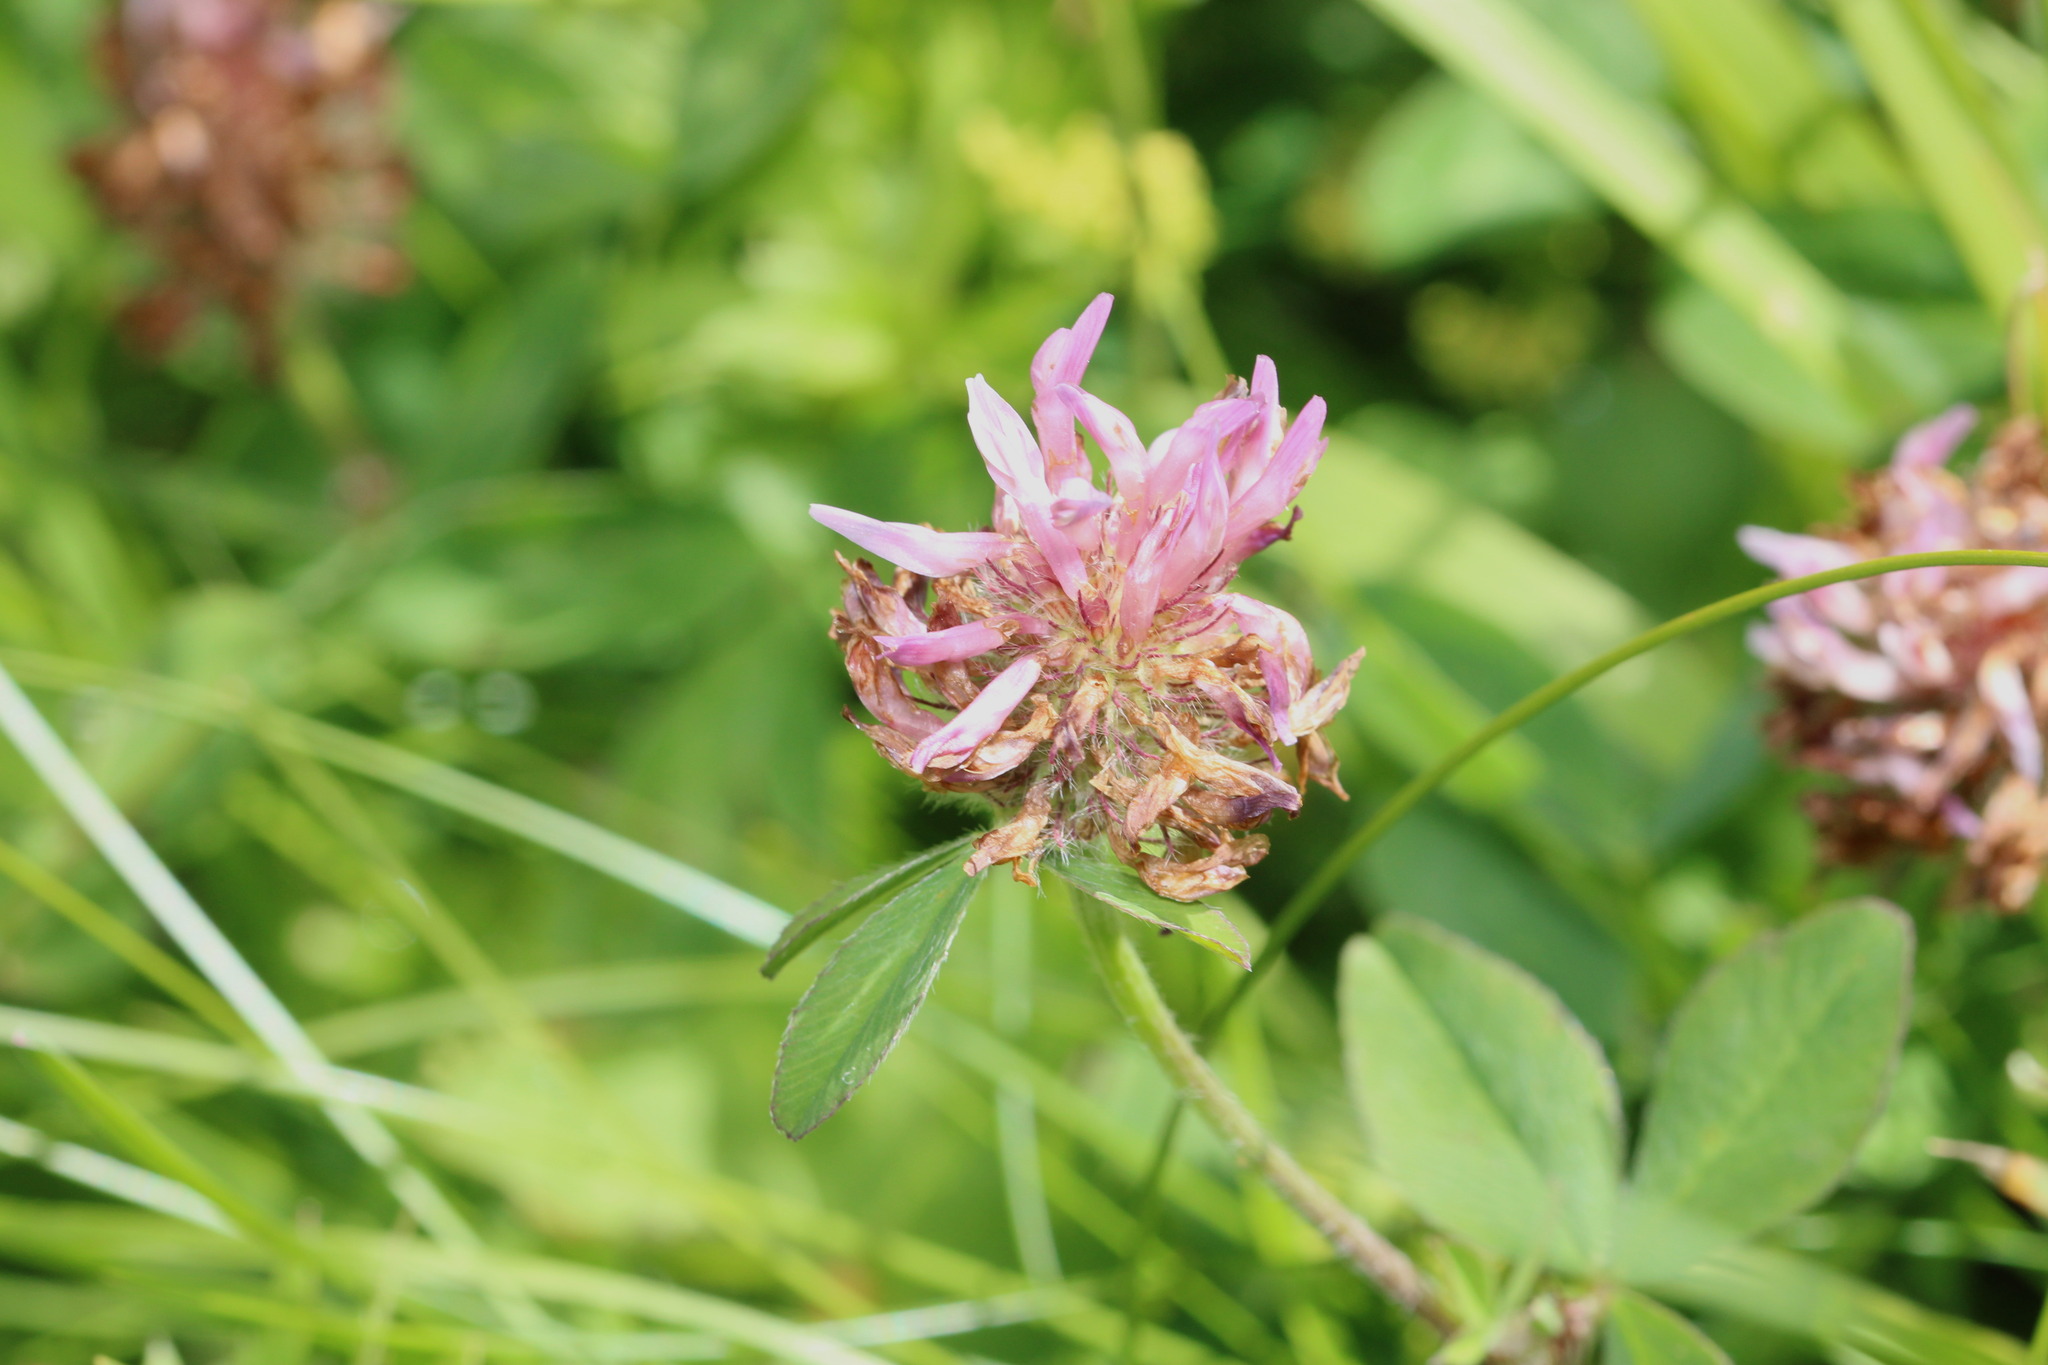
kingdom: Plantae
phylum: Tracheophyta
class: Magnoliopsida
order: Fabales
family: Fabaceae
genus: Trifolium
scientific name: Trifolium pratense
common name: Red clover
